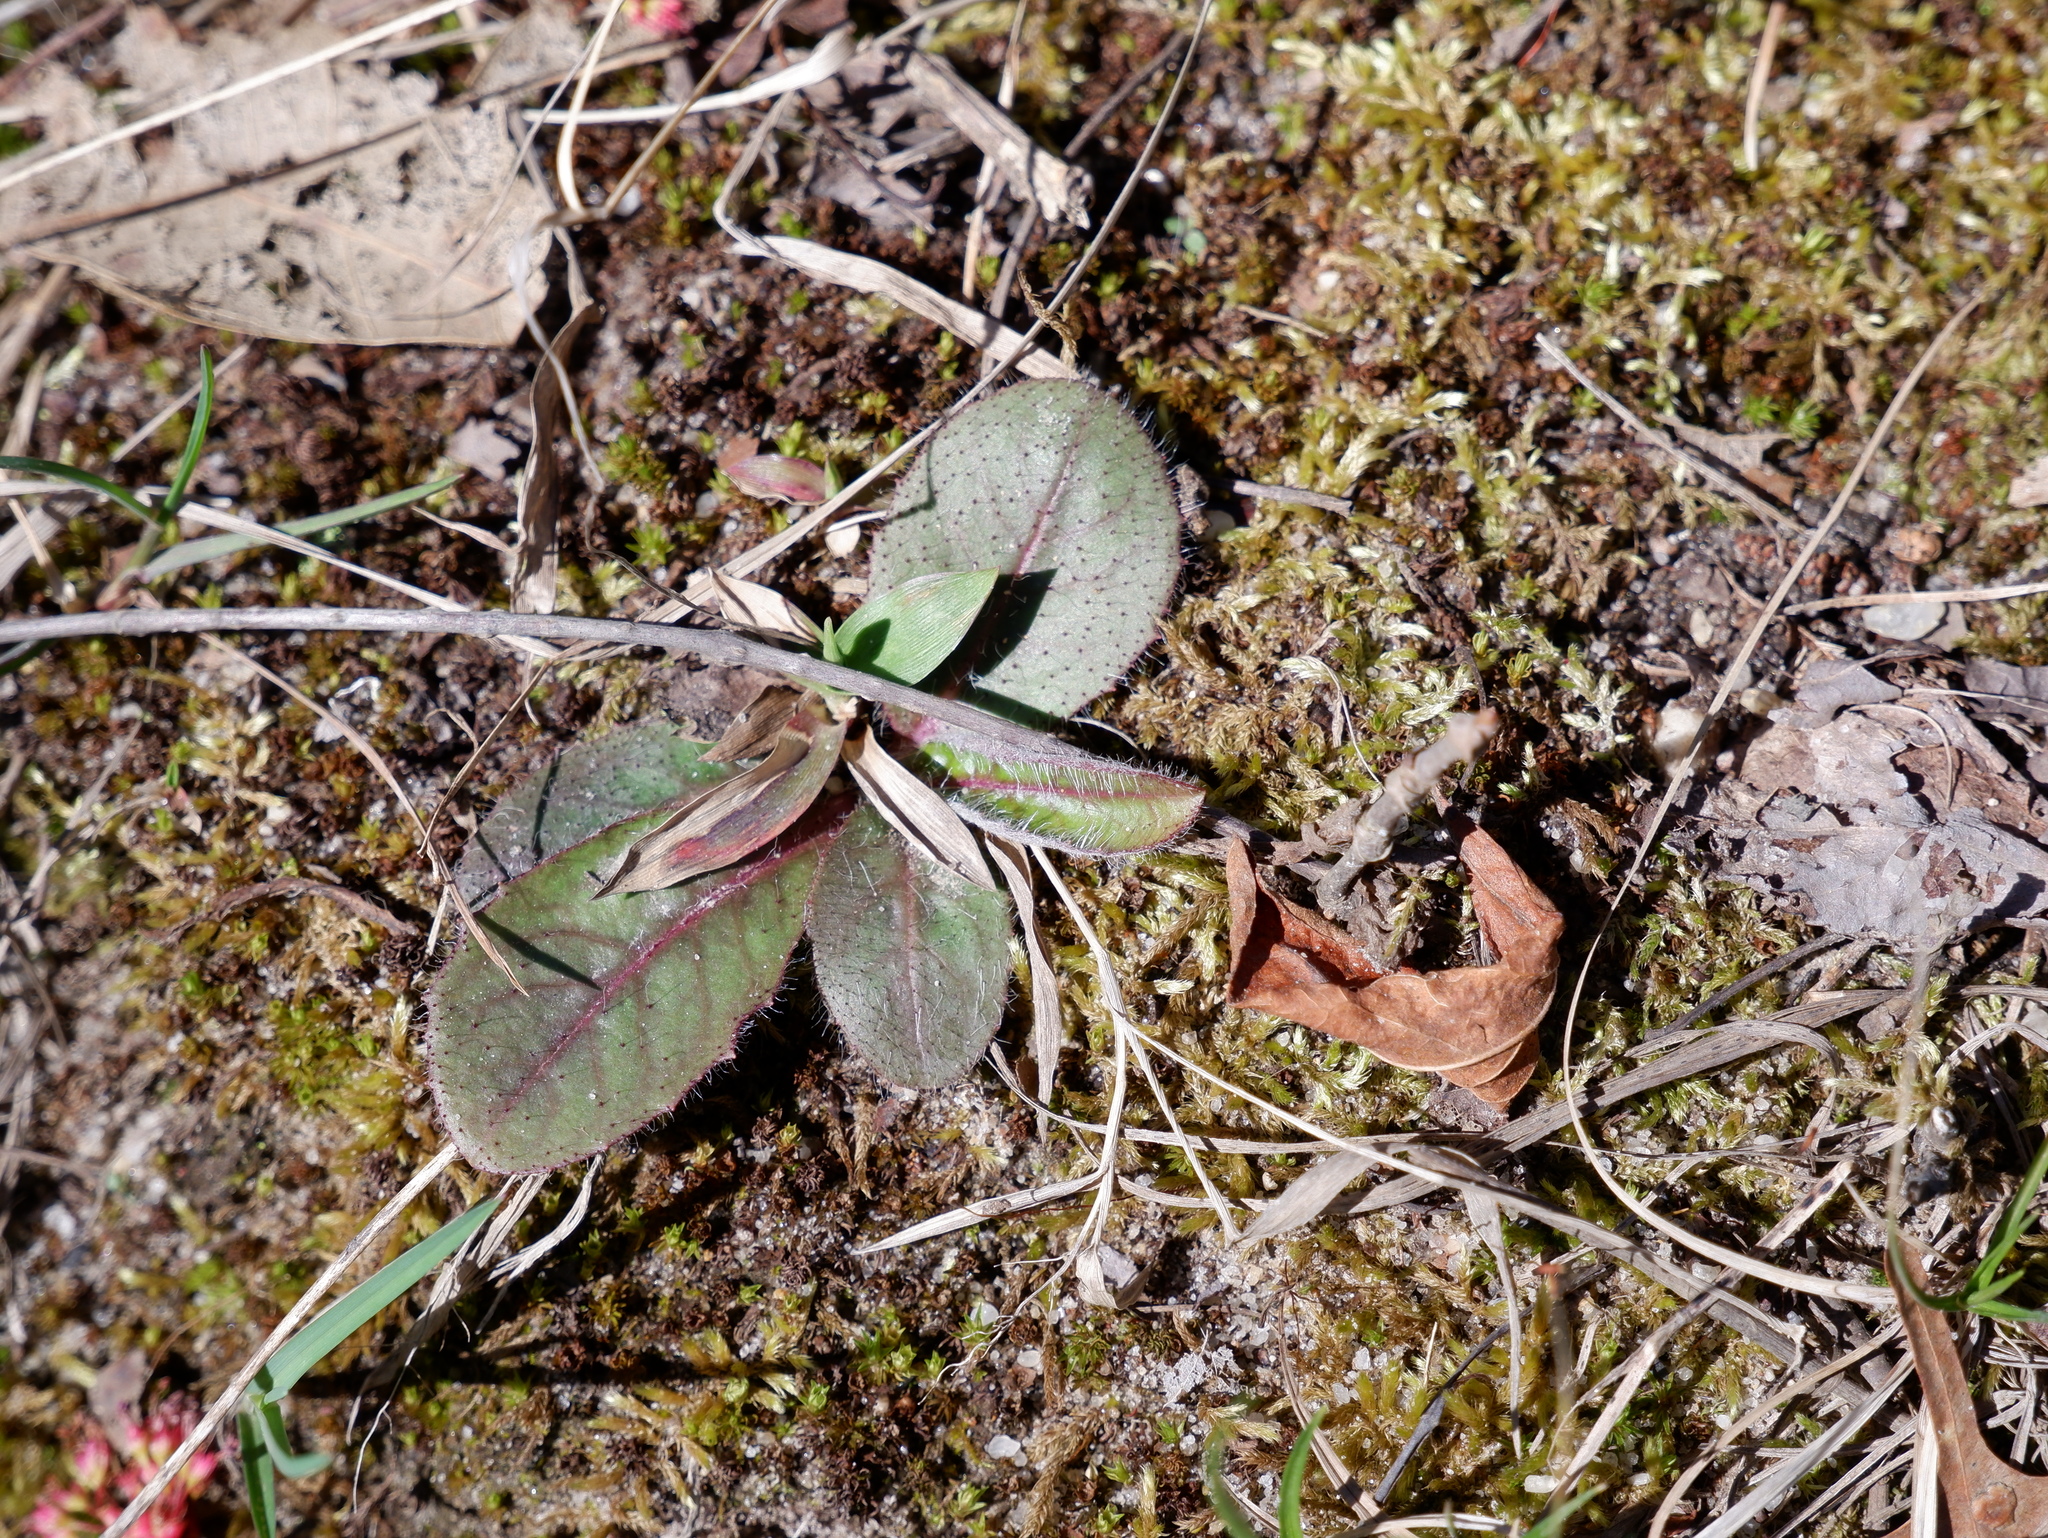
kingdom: Plantae
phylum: Tracheophyta
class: Magnoliopsida
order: Asterales
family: Asteraceae
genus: Hieracium
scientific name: Hieracium venosum
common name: Rattlesnake hawkweed
